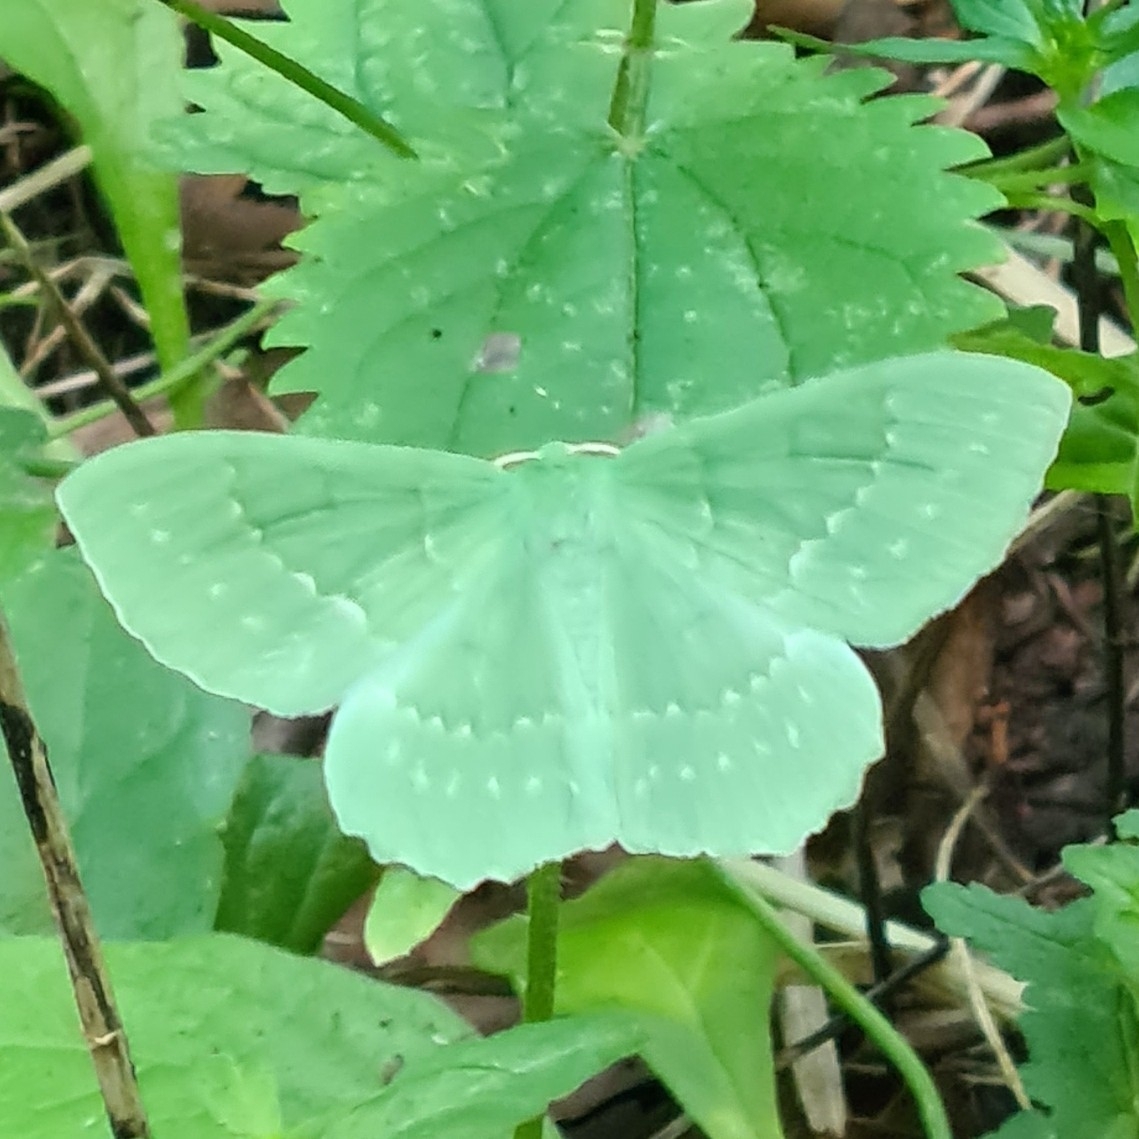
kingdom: Animalia
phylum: Arthropoda
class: Insecta
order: Lepidoptera
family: Geometridae
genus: Geometra
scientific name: Geometra papilionaria
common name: Large emerald
